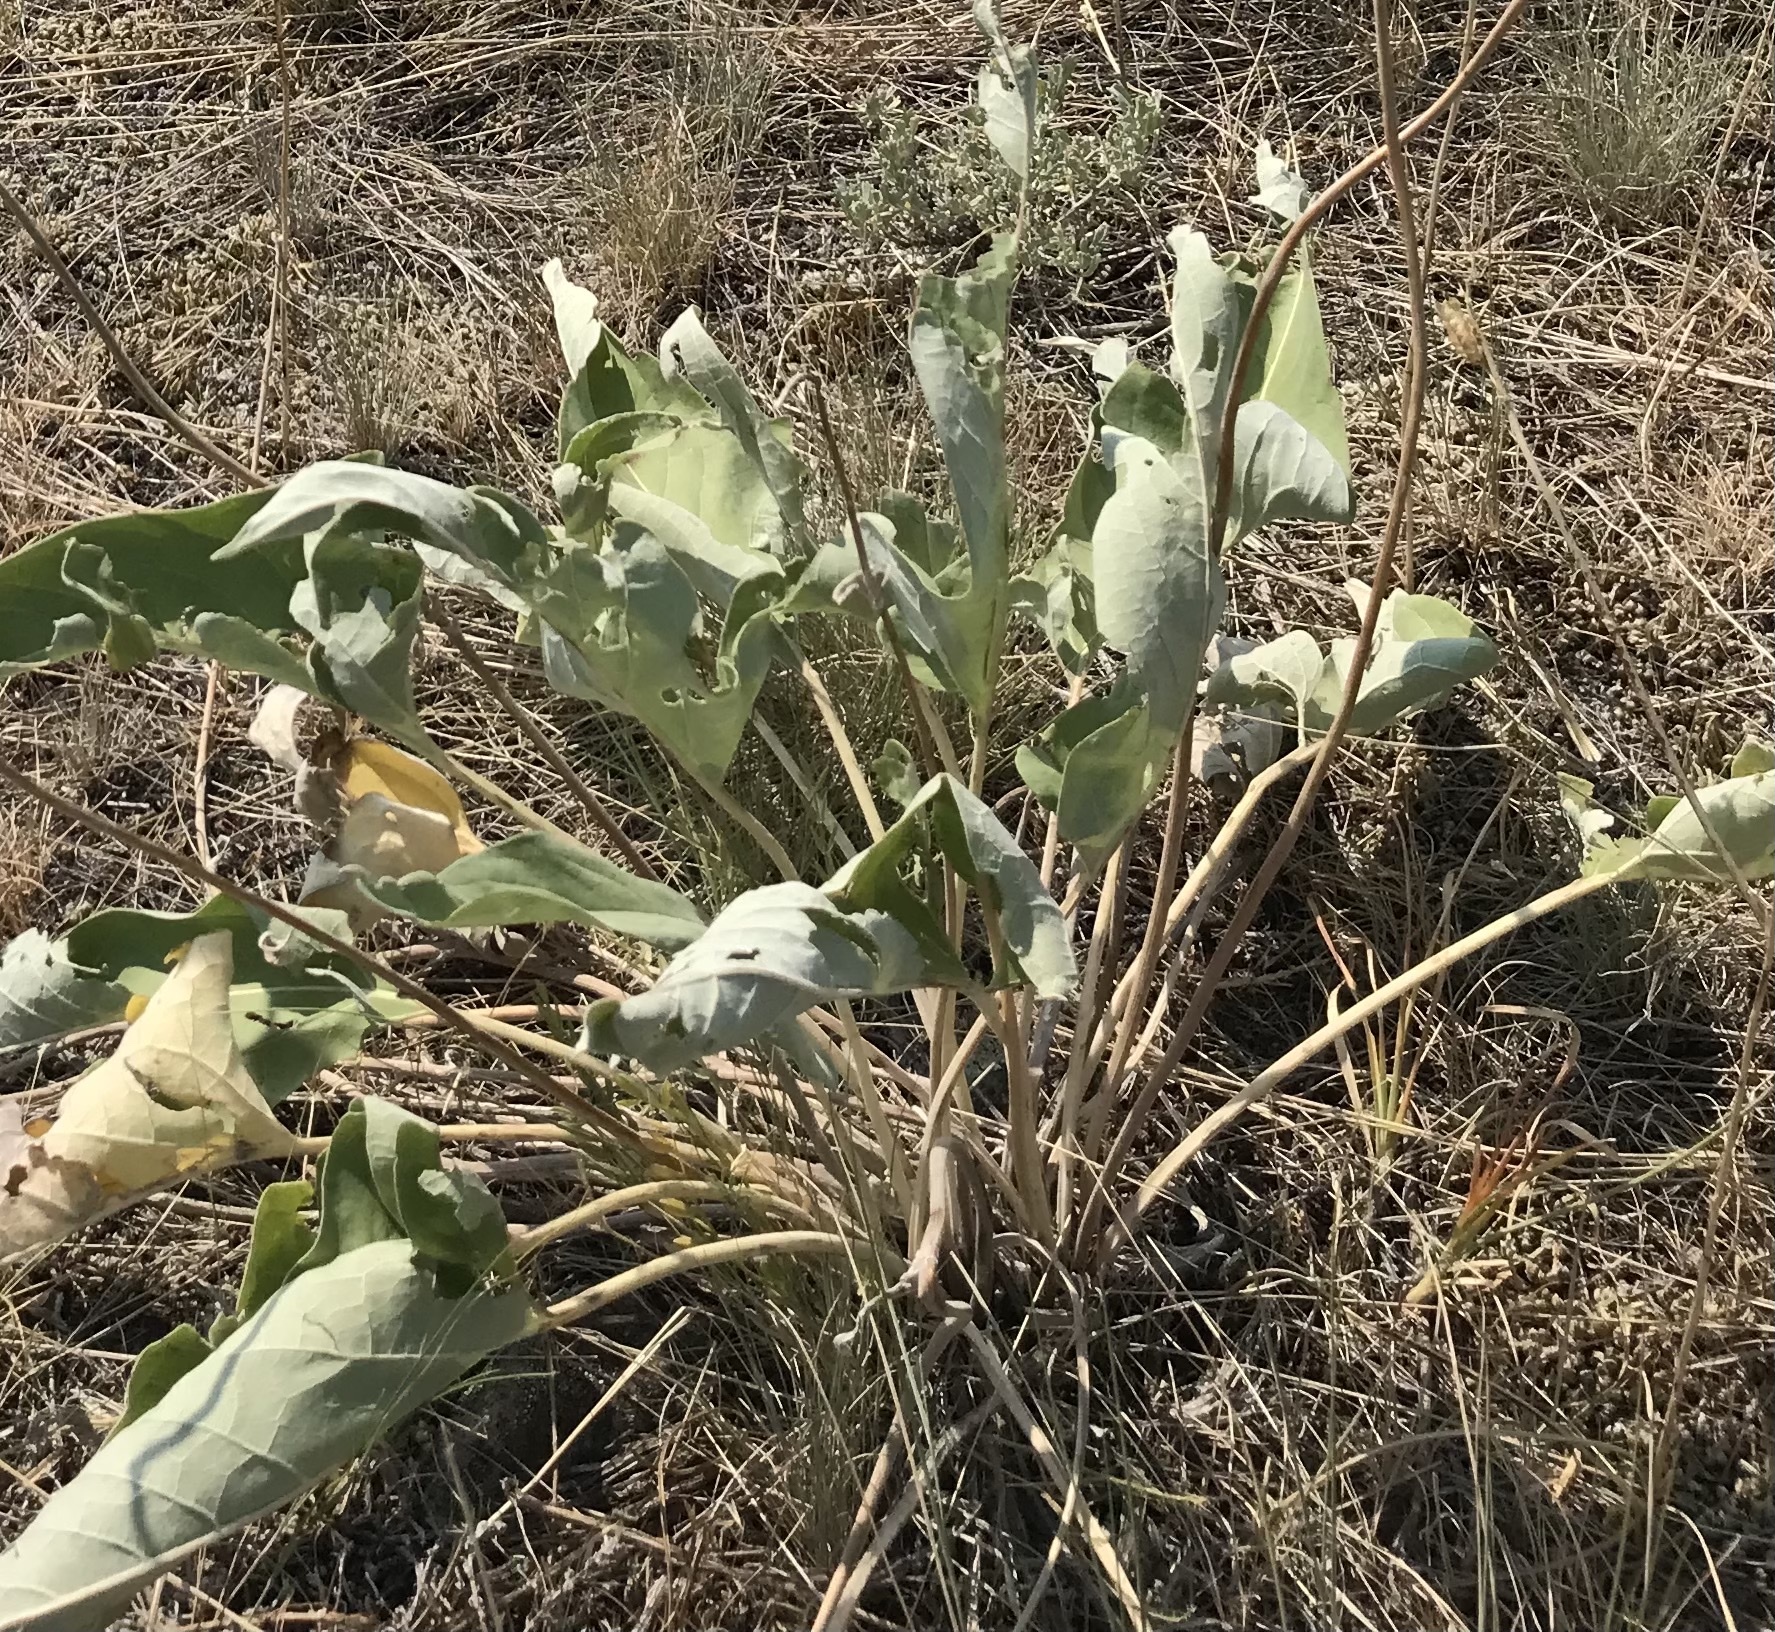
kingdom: Plantae
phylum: Tracheophyta
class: Magnoliopsida
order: Asterales
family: Asteraceae
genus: Wyethia
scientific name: Wyethia sagittata
